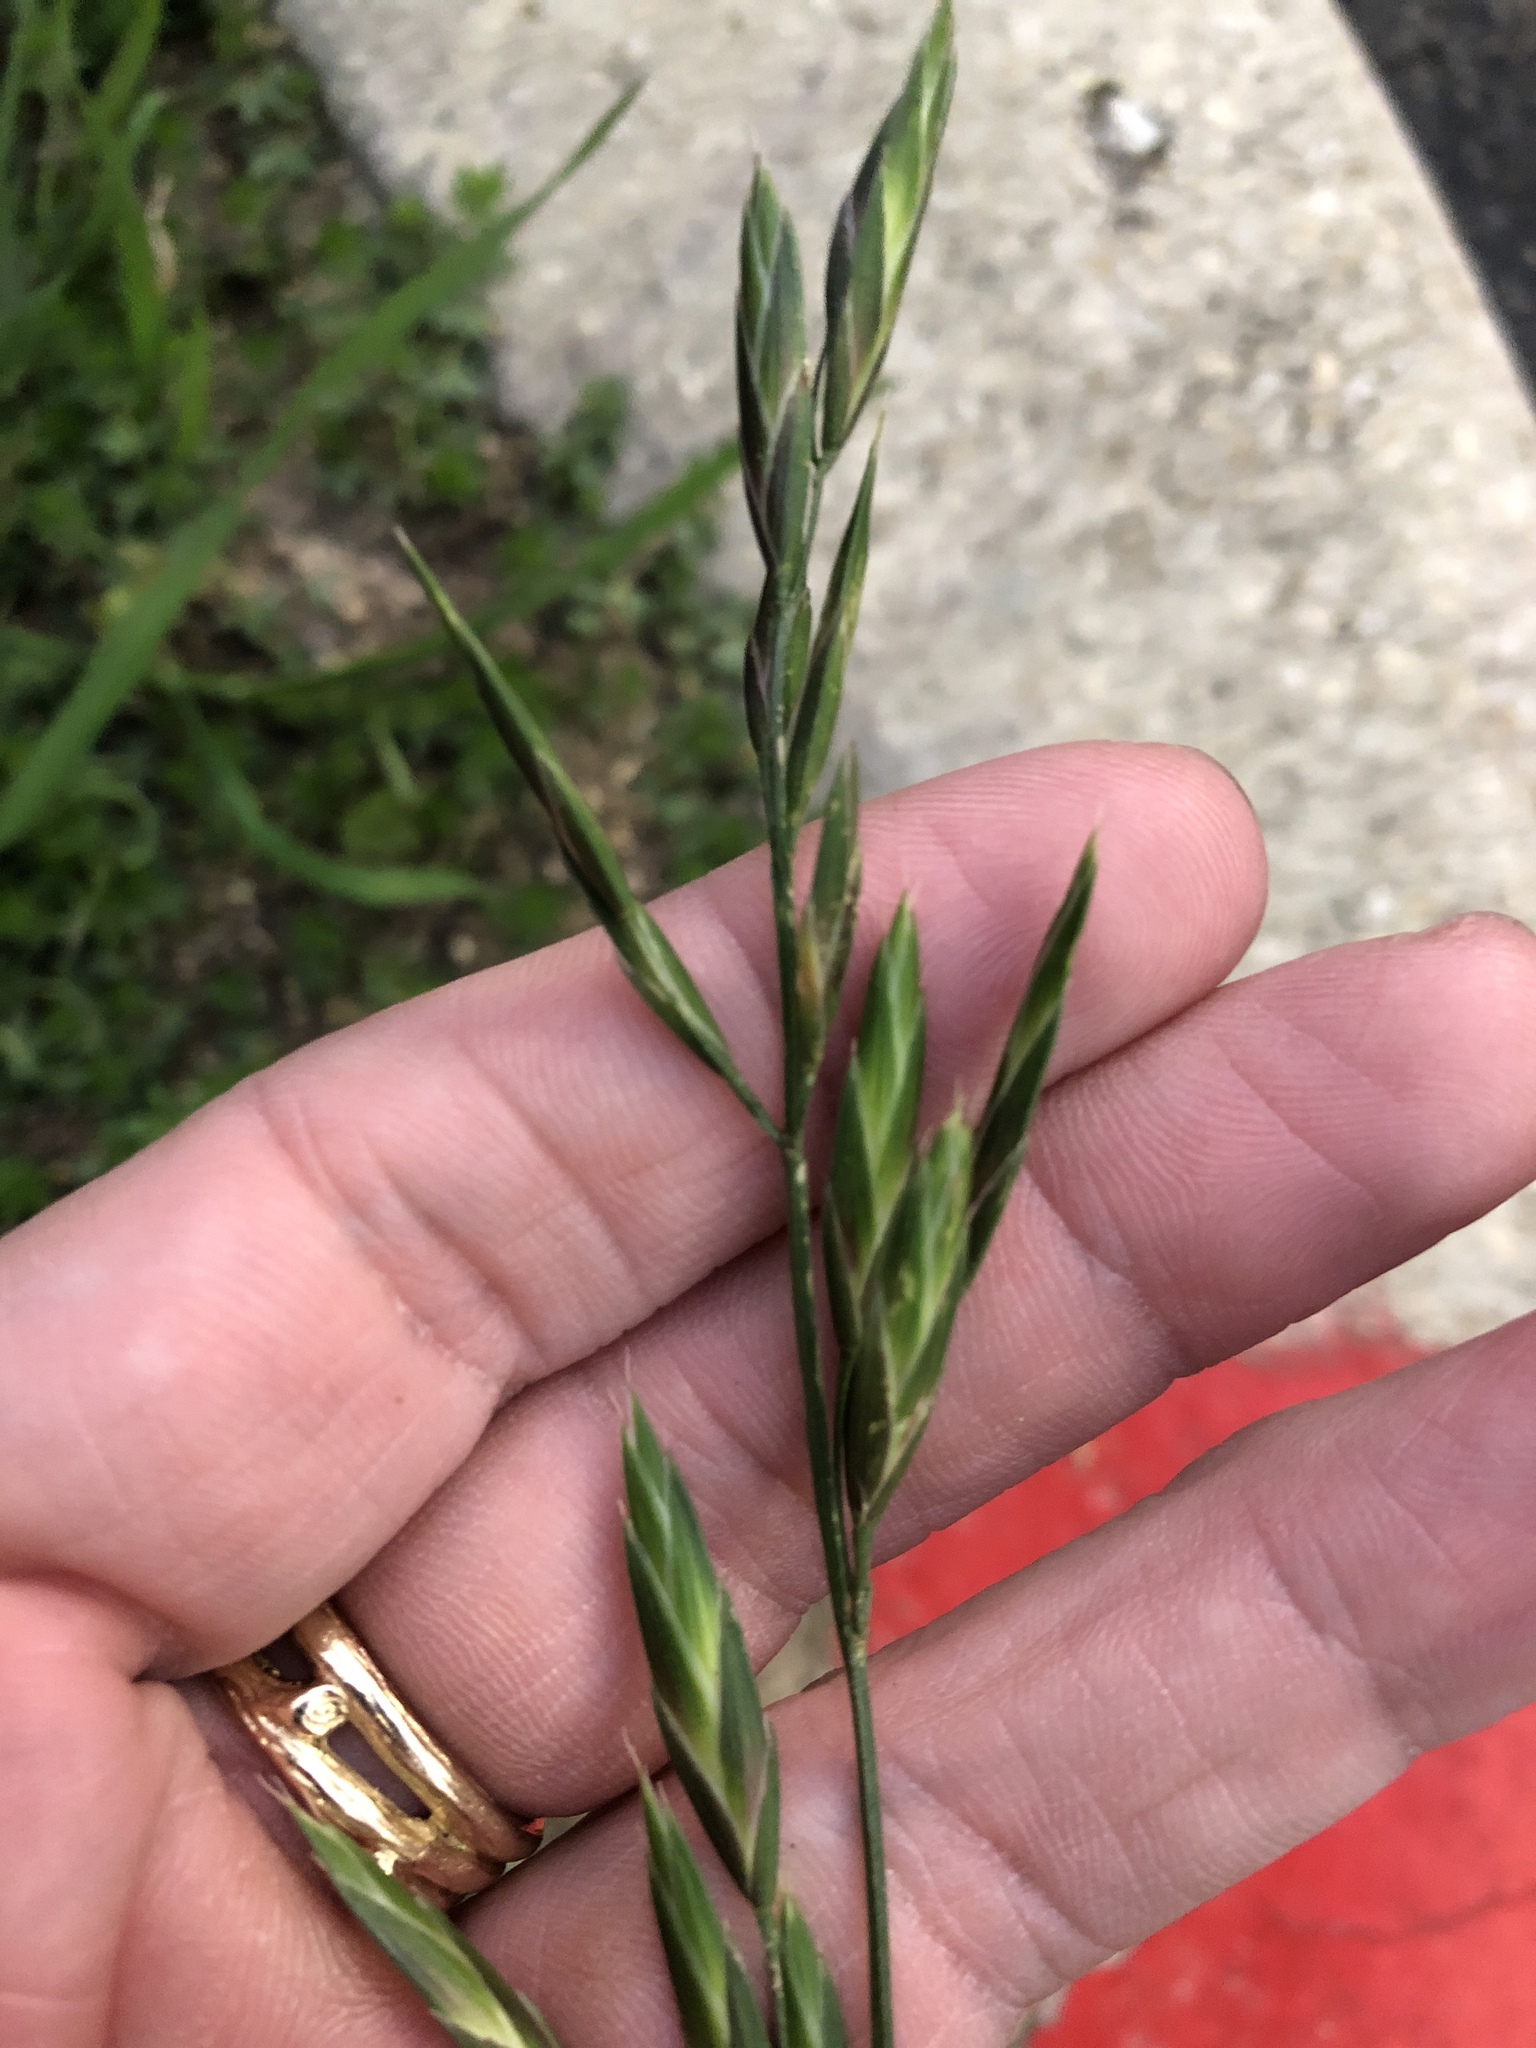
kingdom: Plantae
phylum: Tracheophyta
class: Liliopsida
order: Poales
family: Poaceae
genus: Bromus
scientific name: Bromus catharticus
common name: Rescuegrass
